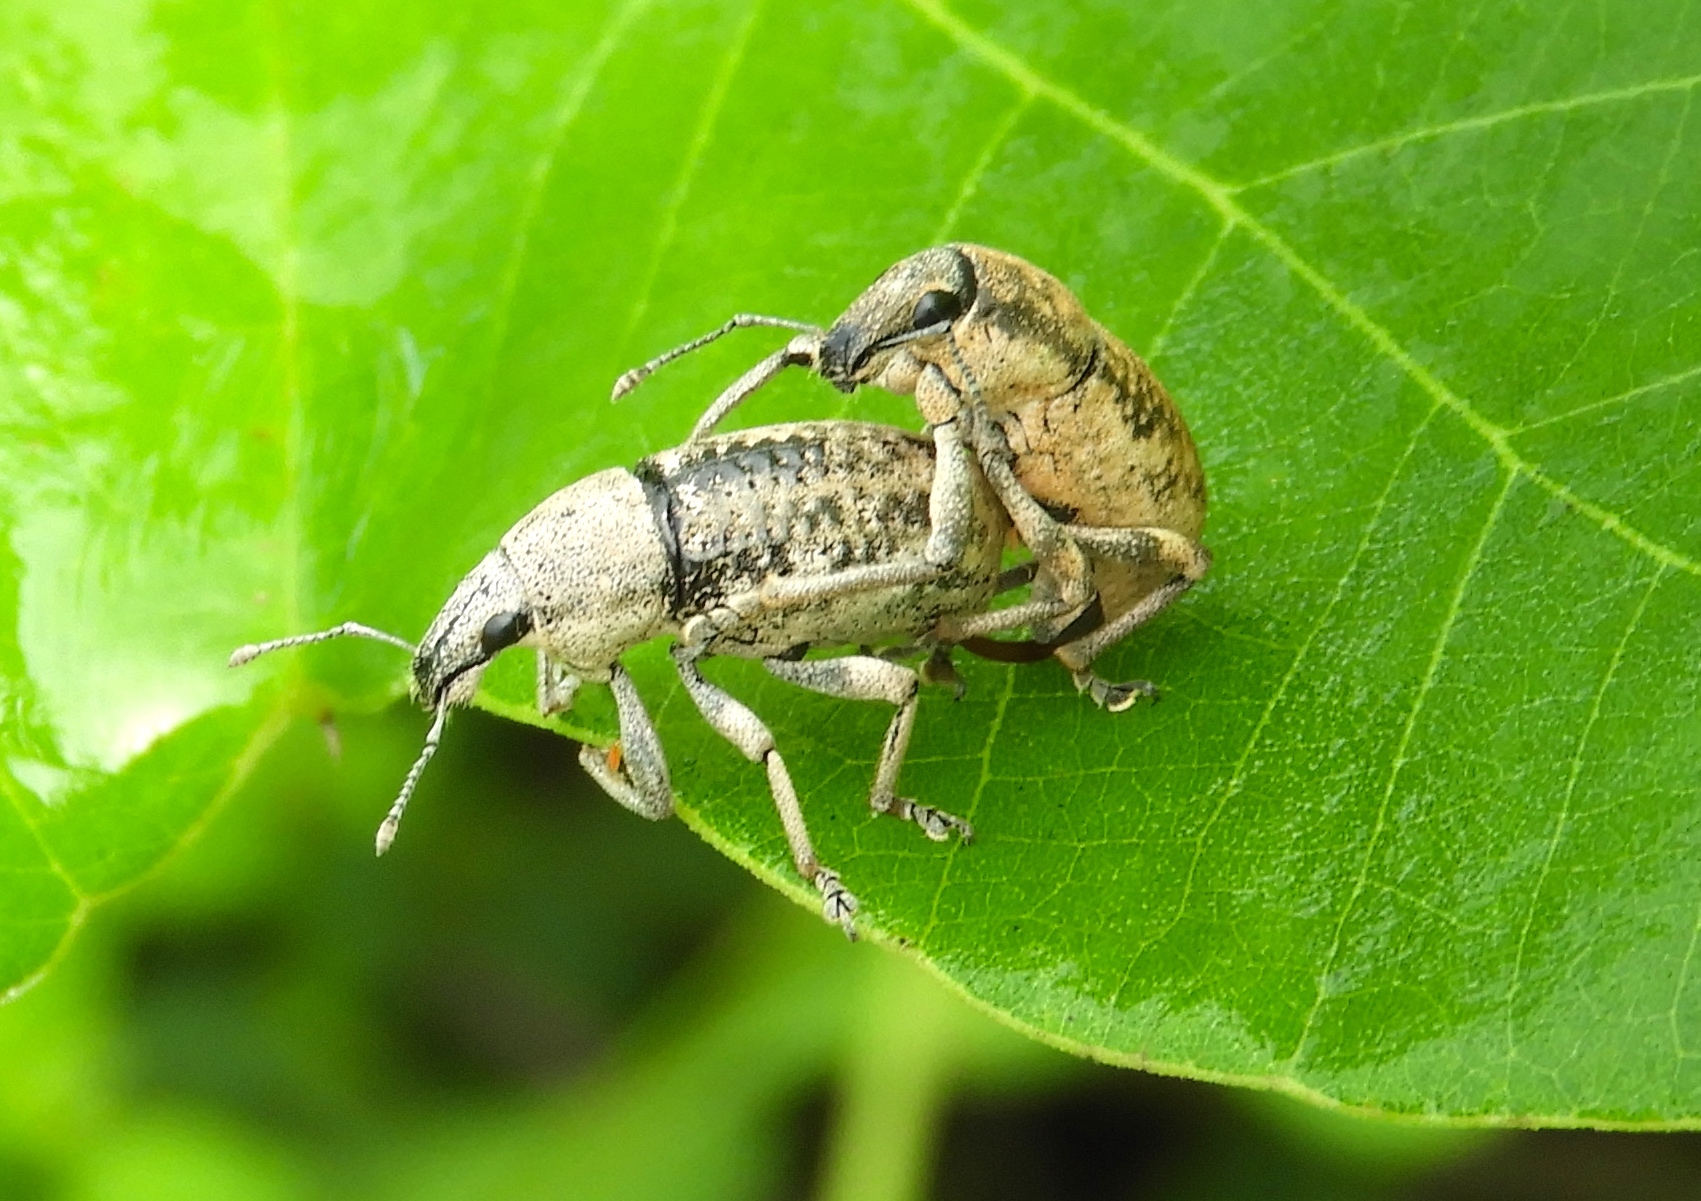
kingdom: Animalia
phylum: Arthropoda
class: Insecta
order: Coleoptera
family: Curculionidae
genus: Epicaerus
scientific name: Epicaerus
